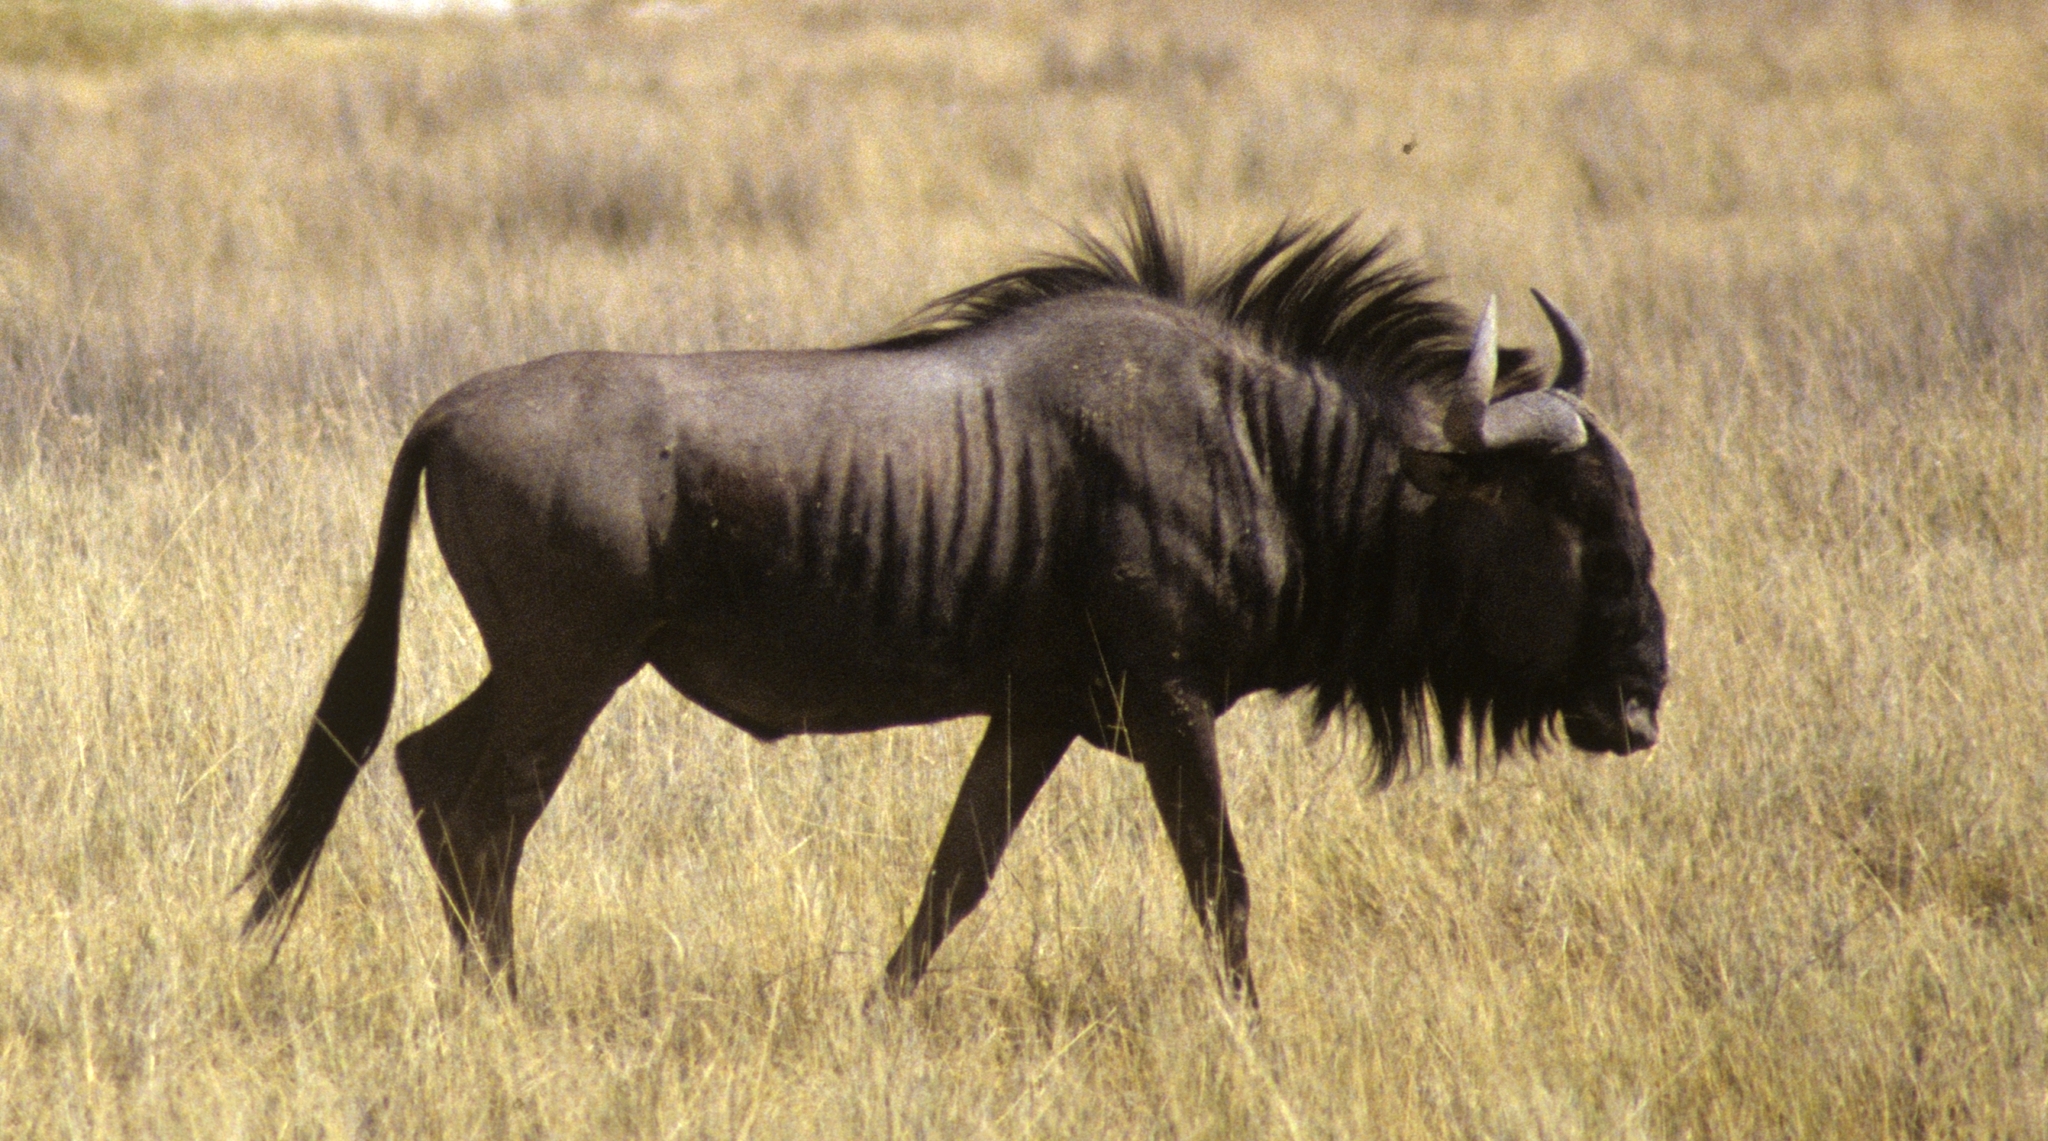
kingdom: Animalia
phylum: Chordata
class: Mammalia
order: Artiodactyla
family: Bovidae
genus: Connochaetes
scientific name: Connochaetes taurinus
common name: Blue wildebeest
